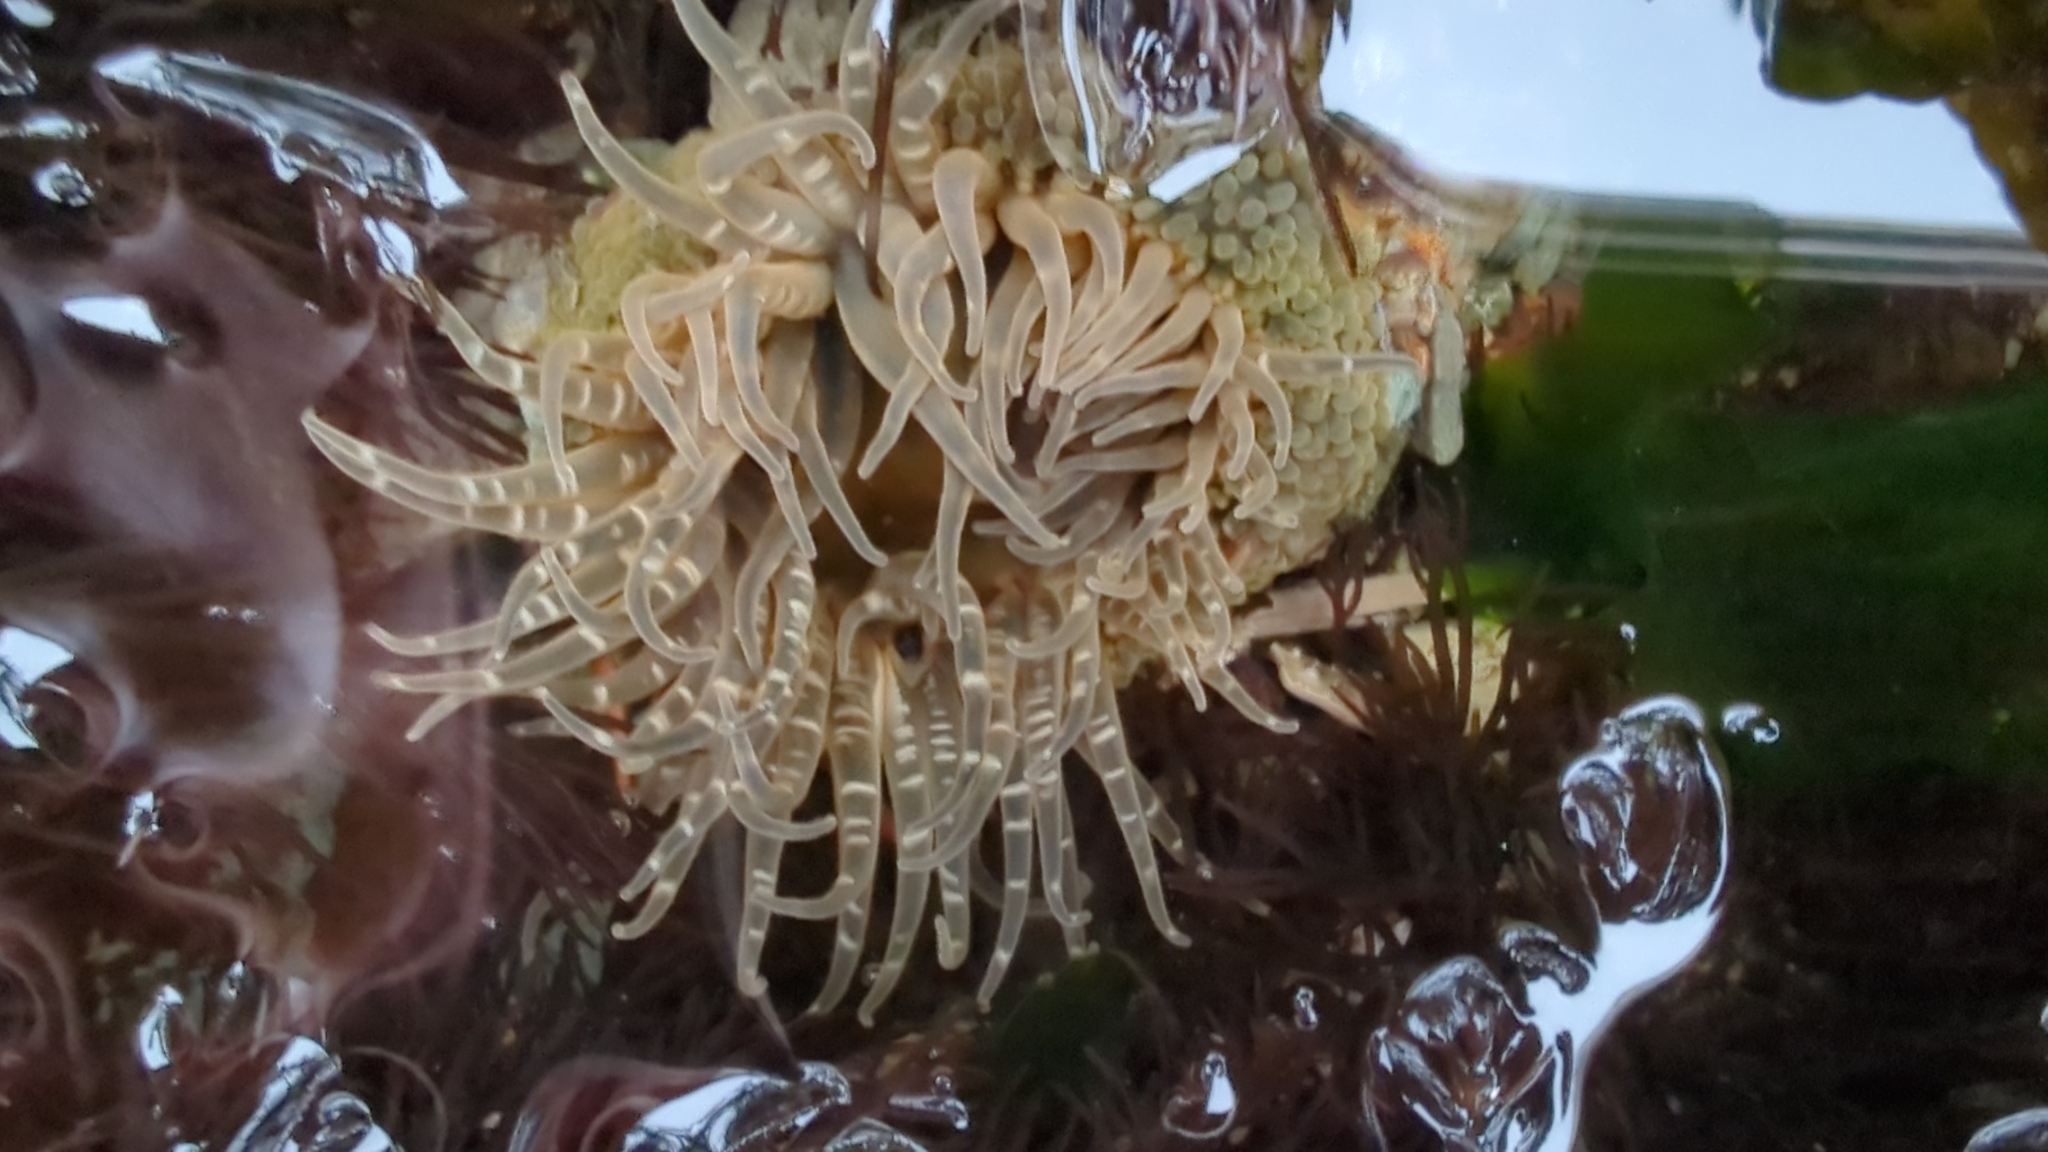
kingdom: Animalia
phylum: Cnidaria
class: Anthozoa
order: Actiniaria
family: Actiniidae
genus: Anthopleura
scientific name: Anthopleura artemisia
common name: Buried sea anemone
